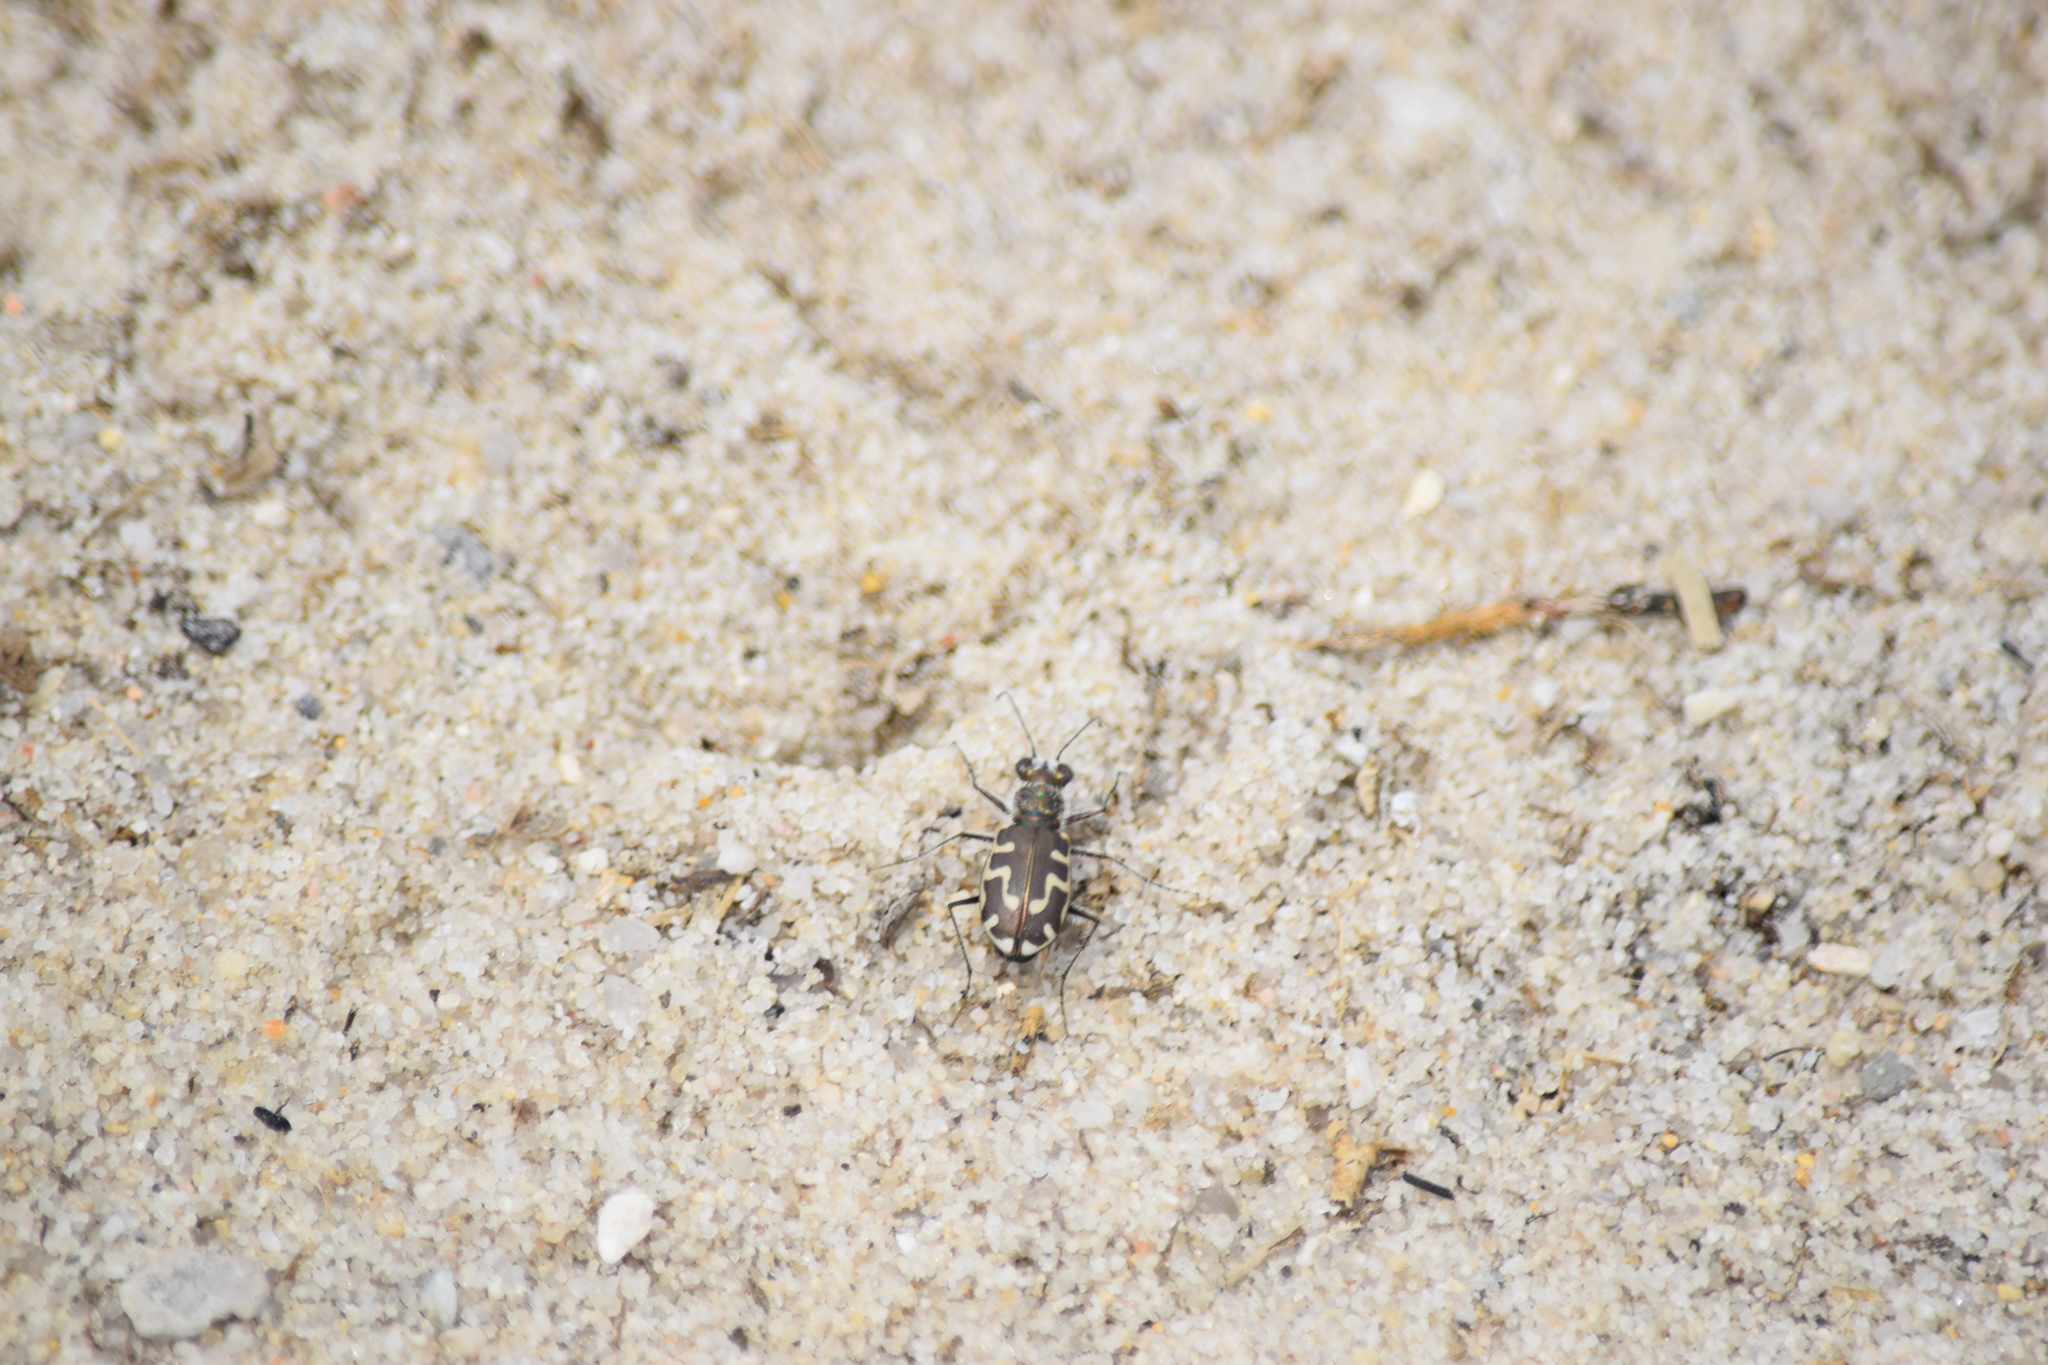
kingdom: Animalia
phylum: Arthropoda
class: Insecta
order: Coleoptera
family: Carabidae
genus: Cicindela
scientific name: Cicindela hirticollis
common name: Hairy-necked tiger beetle
